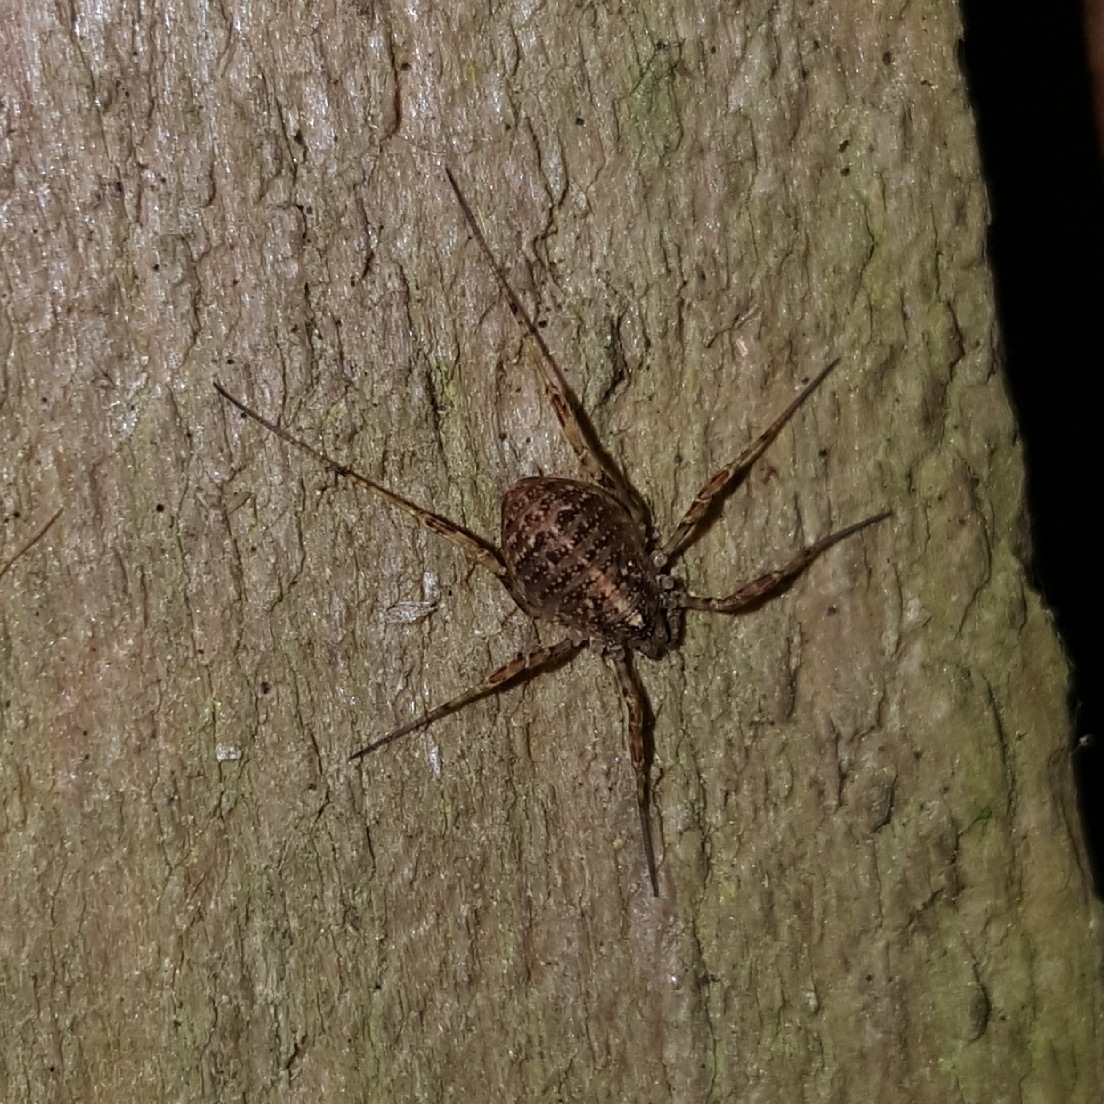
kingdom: Animalia
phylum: Arthropoda
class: Arachnida
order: Opiliones
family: Phalangiidae
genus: Paroligolophus
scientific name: Paroligolophus agrestis
